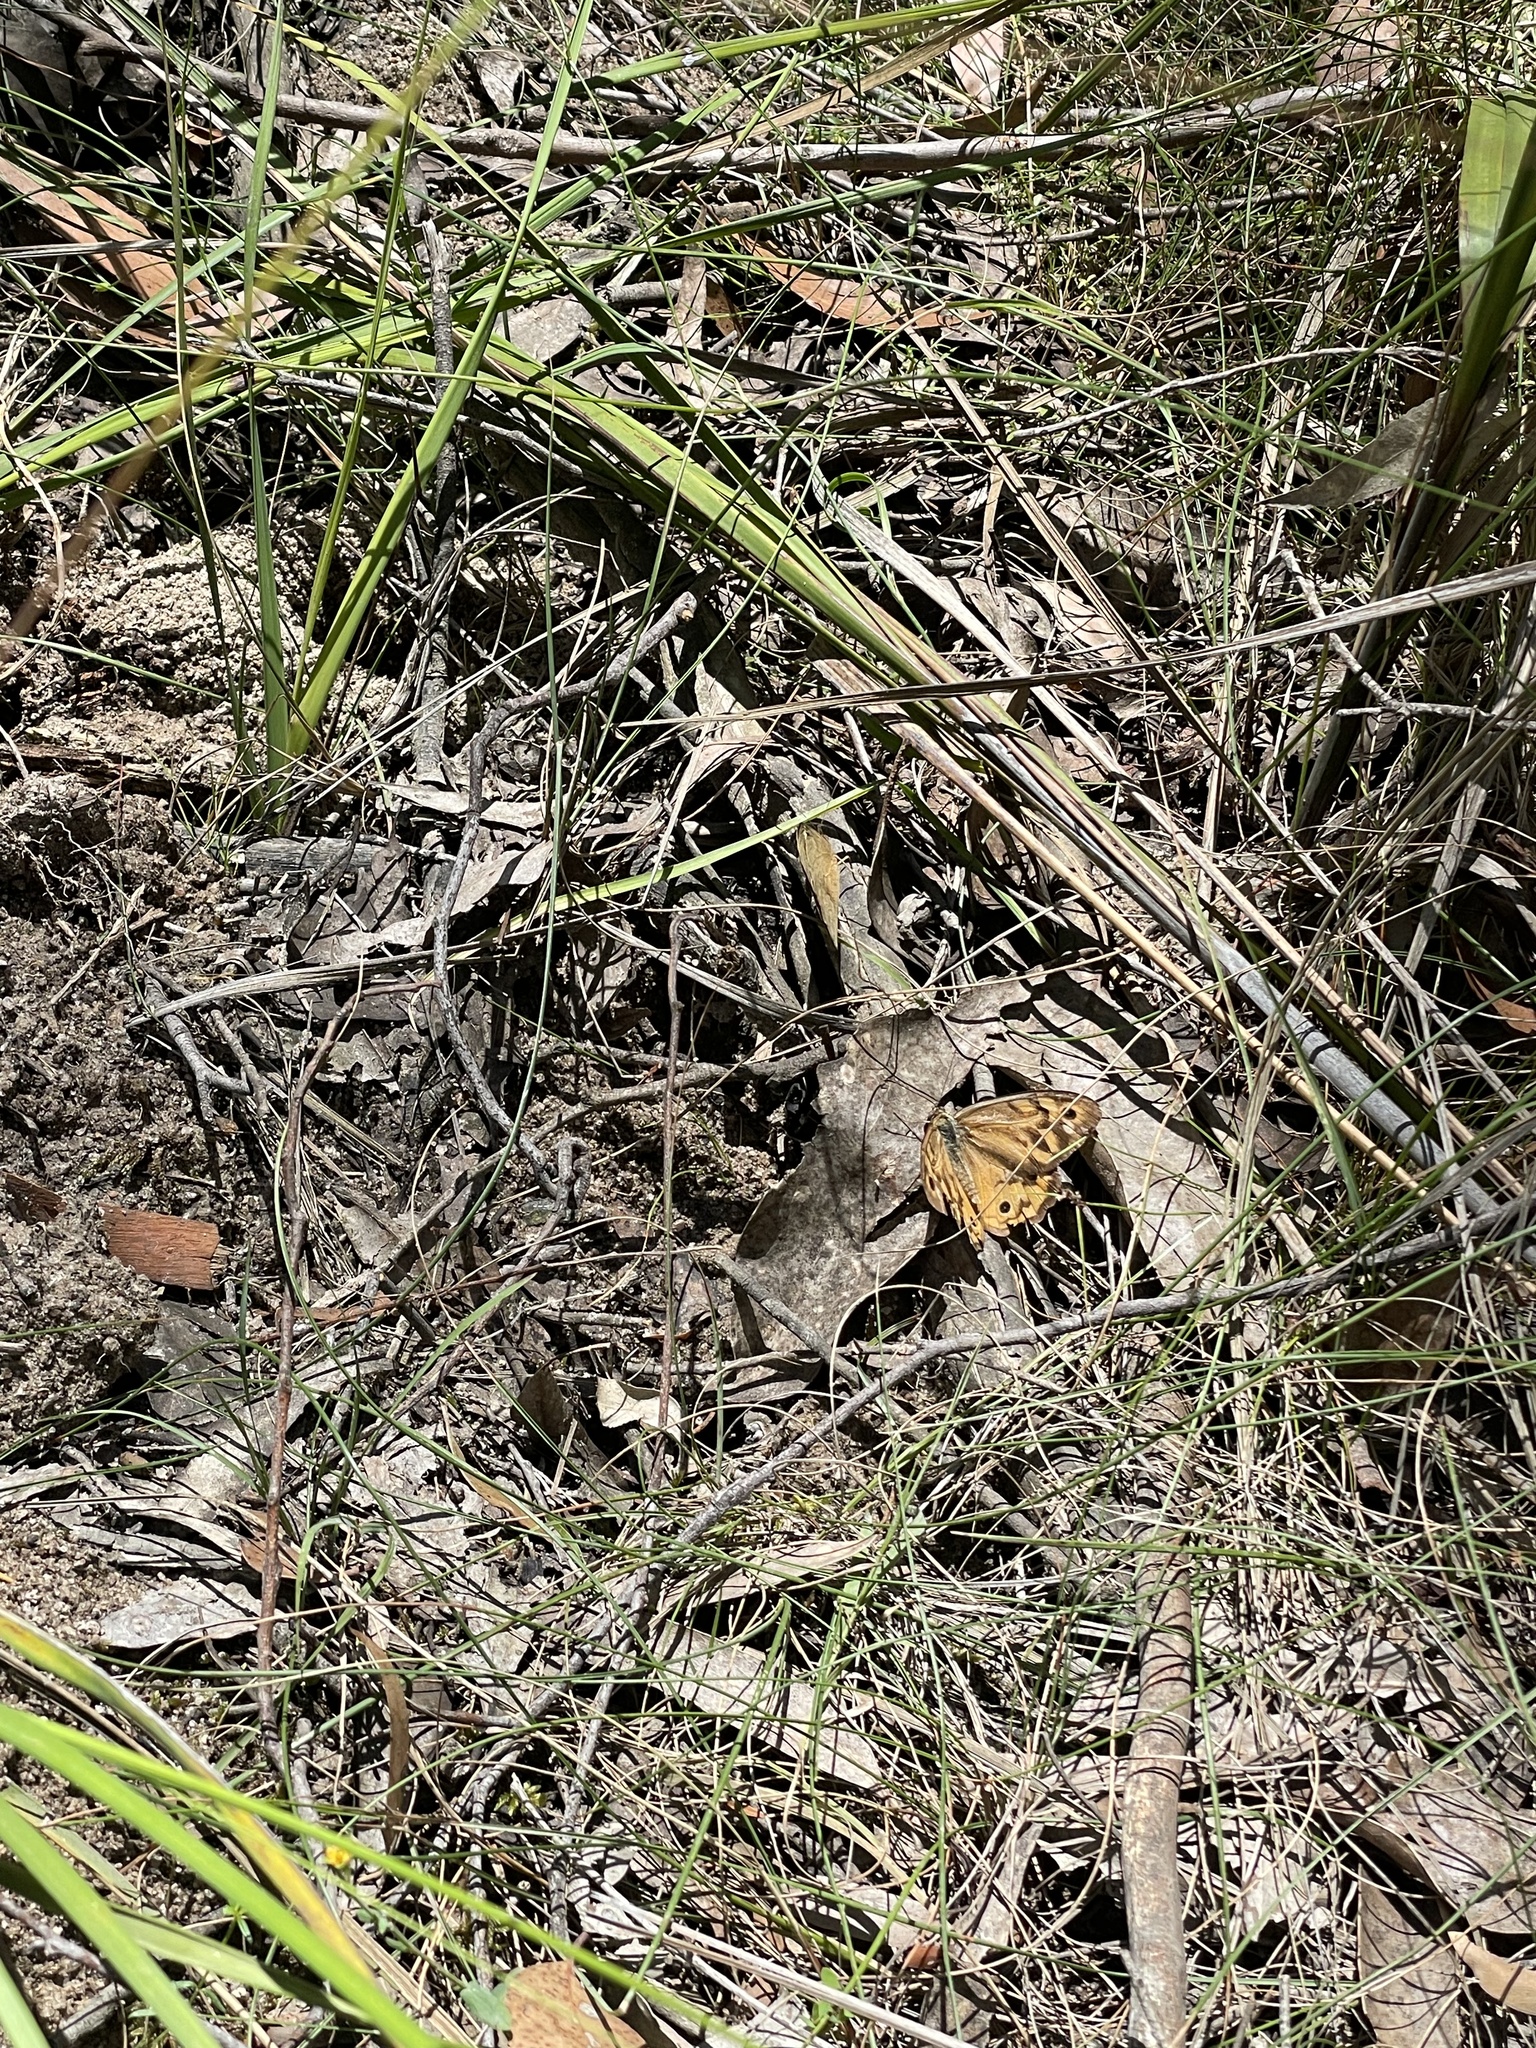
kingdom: Animalia
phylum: Arthropoda
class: Insecta
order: Lepidoptera
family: Nymphalidae
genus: Heteronympha
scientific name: Heteronympha merope
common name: Common brown
